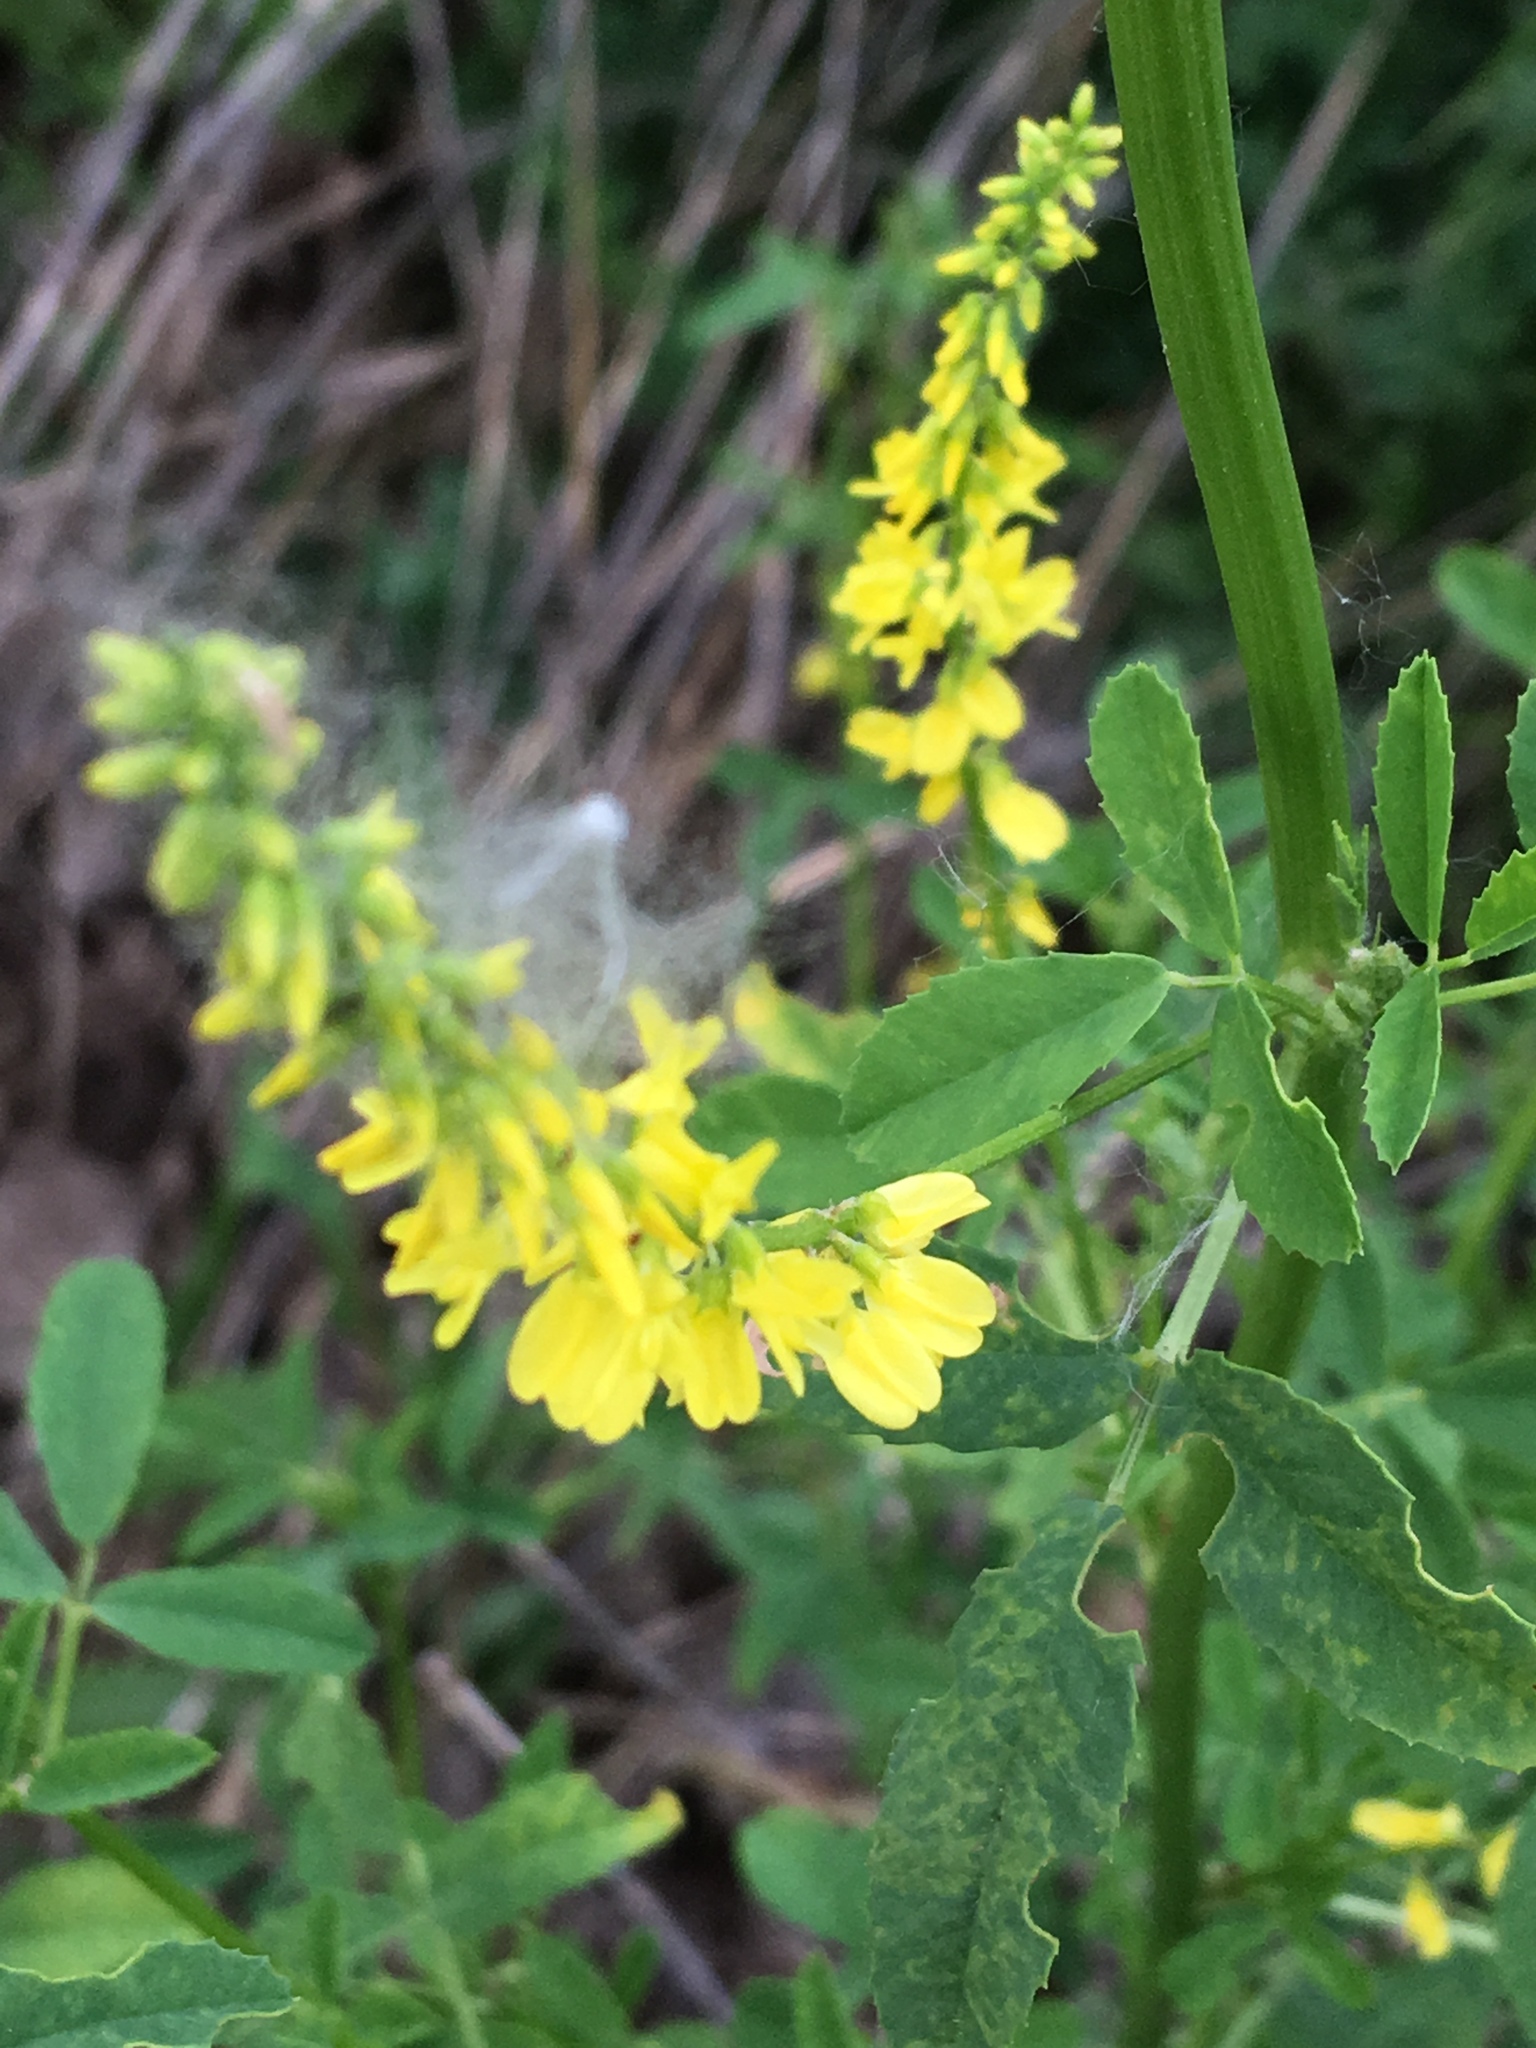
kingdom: Plantae
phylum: Tracheophyta
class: Magnoliopsida
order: Fabales
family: Fabaceae
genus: Melilotus
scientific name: Melilotus officinalis
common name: Sweetclover
